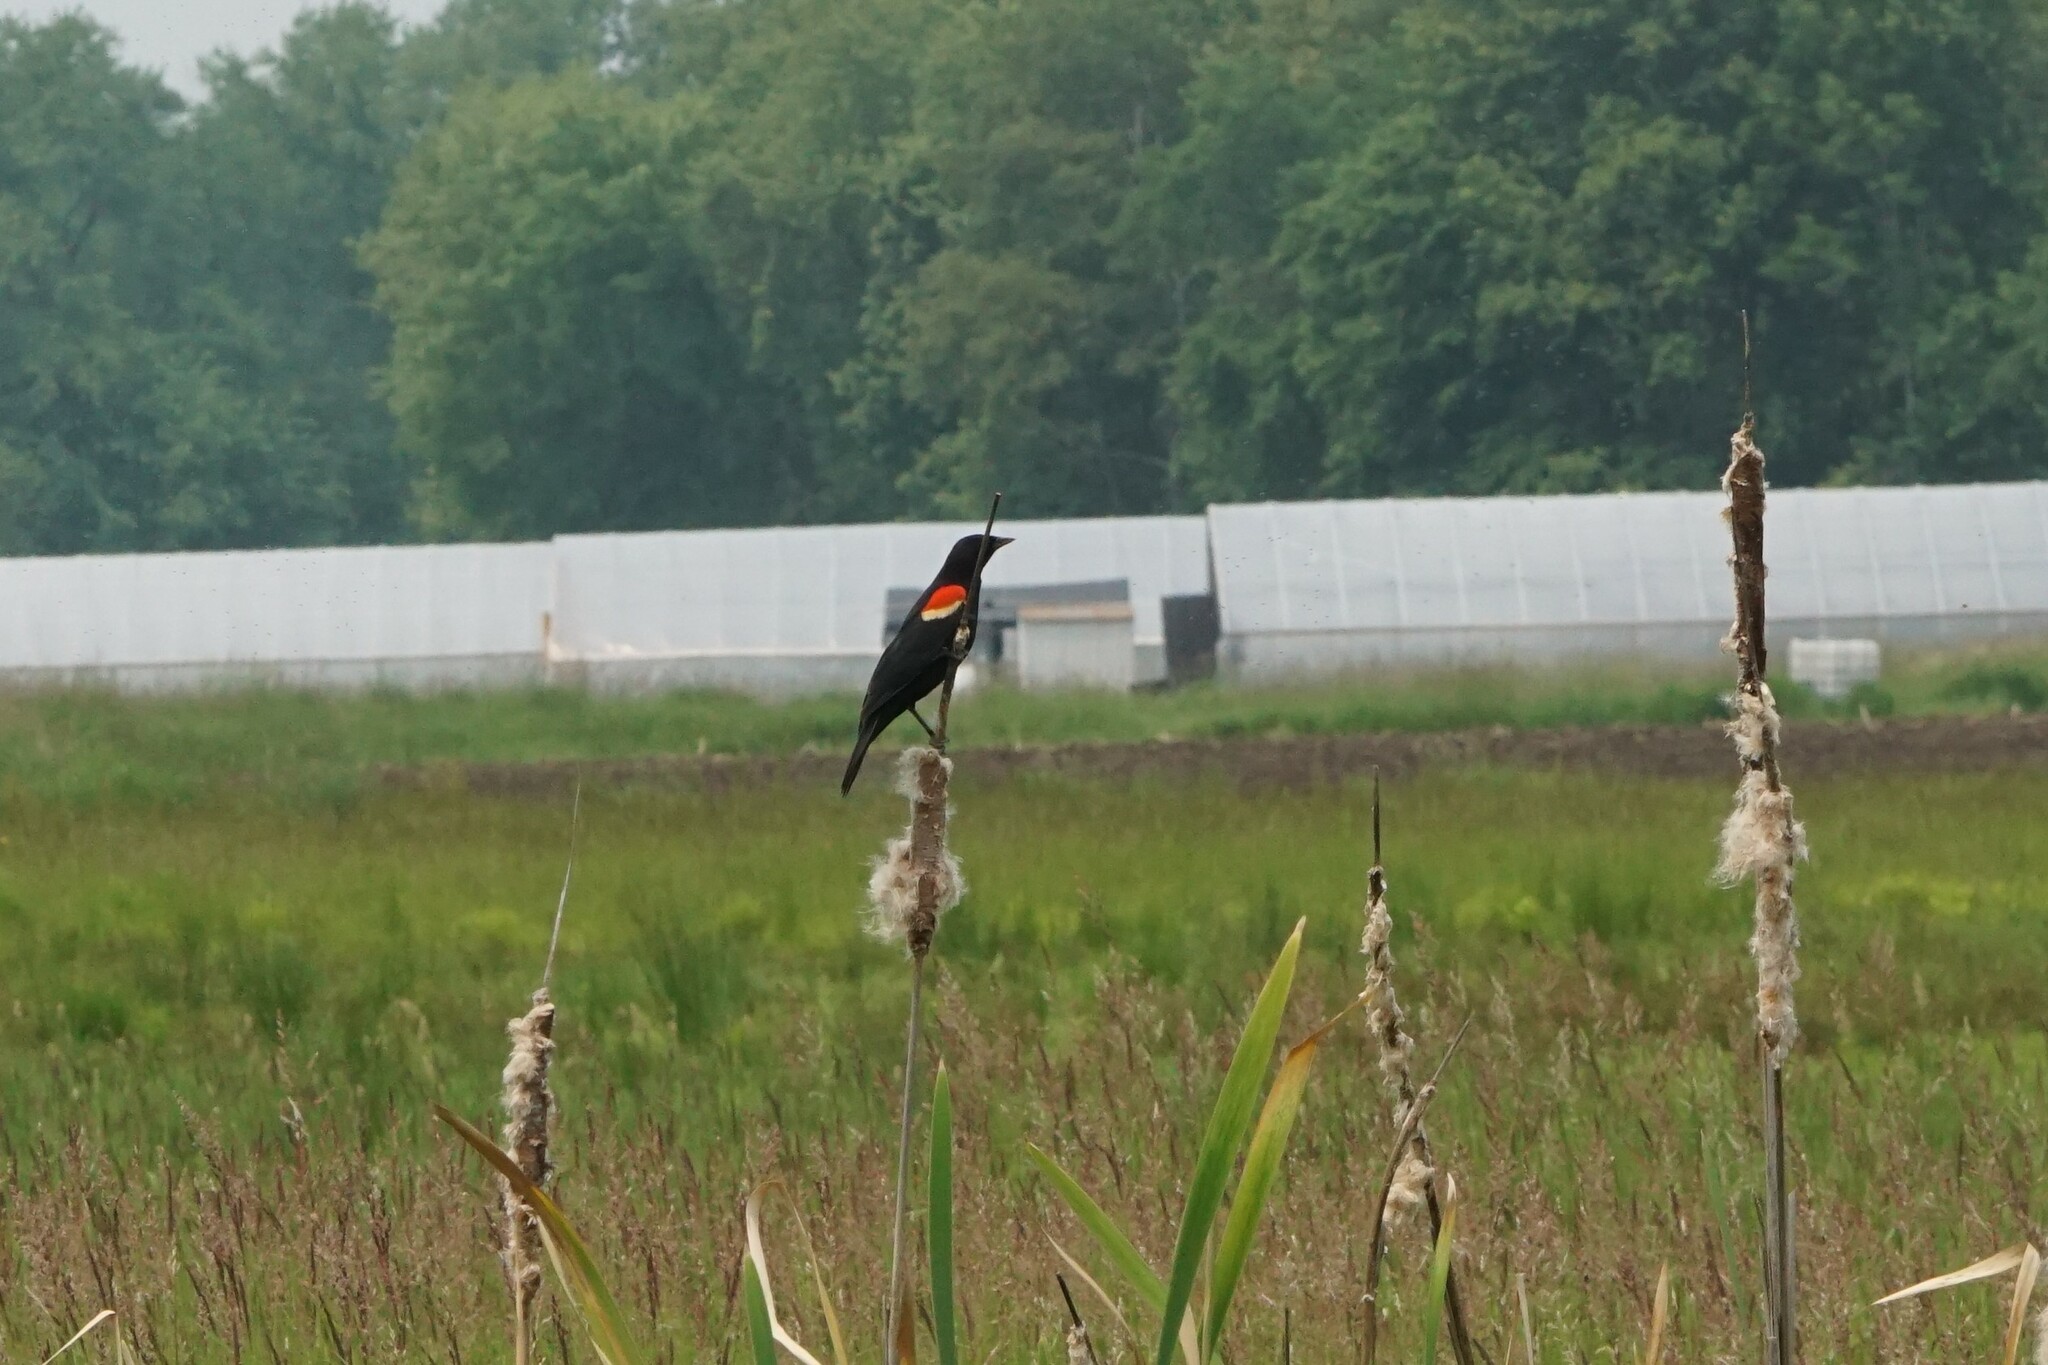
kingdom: Animalia
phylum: Chordata
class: Aves
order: Passeriformes
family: Icteridae
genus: Agelaius
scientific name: Agelaius phoeniceus
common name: Red-winged blackbird
